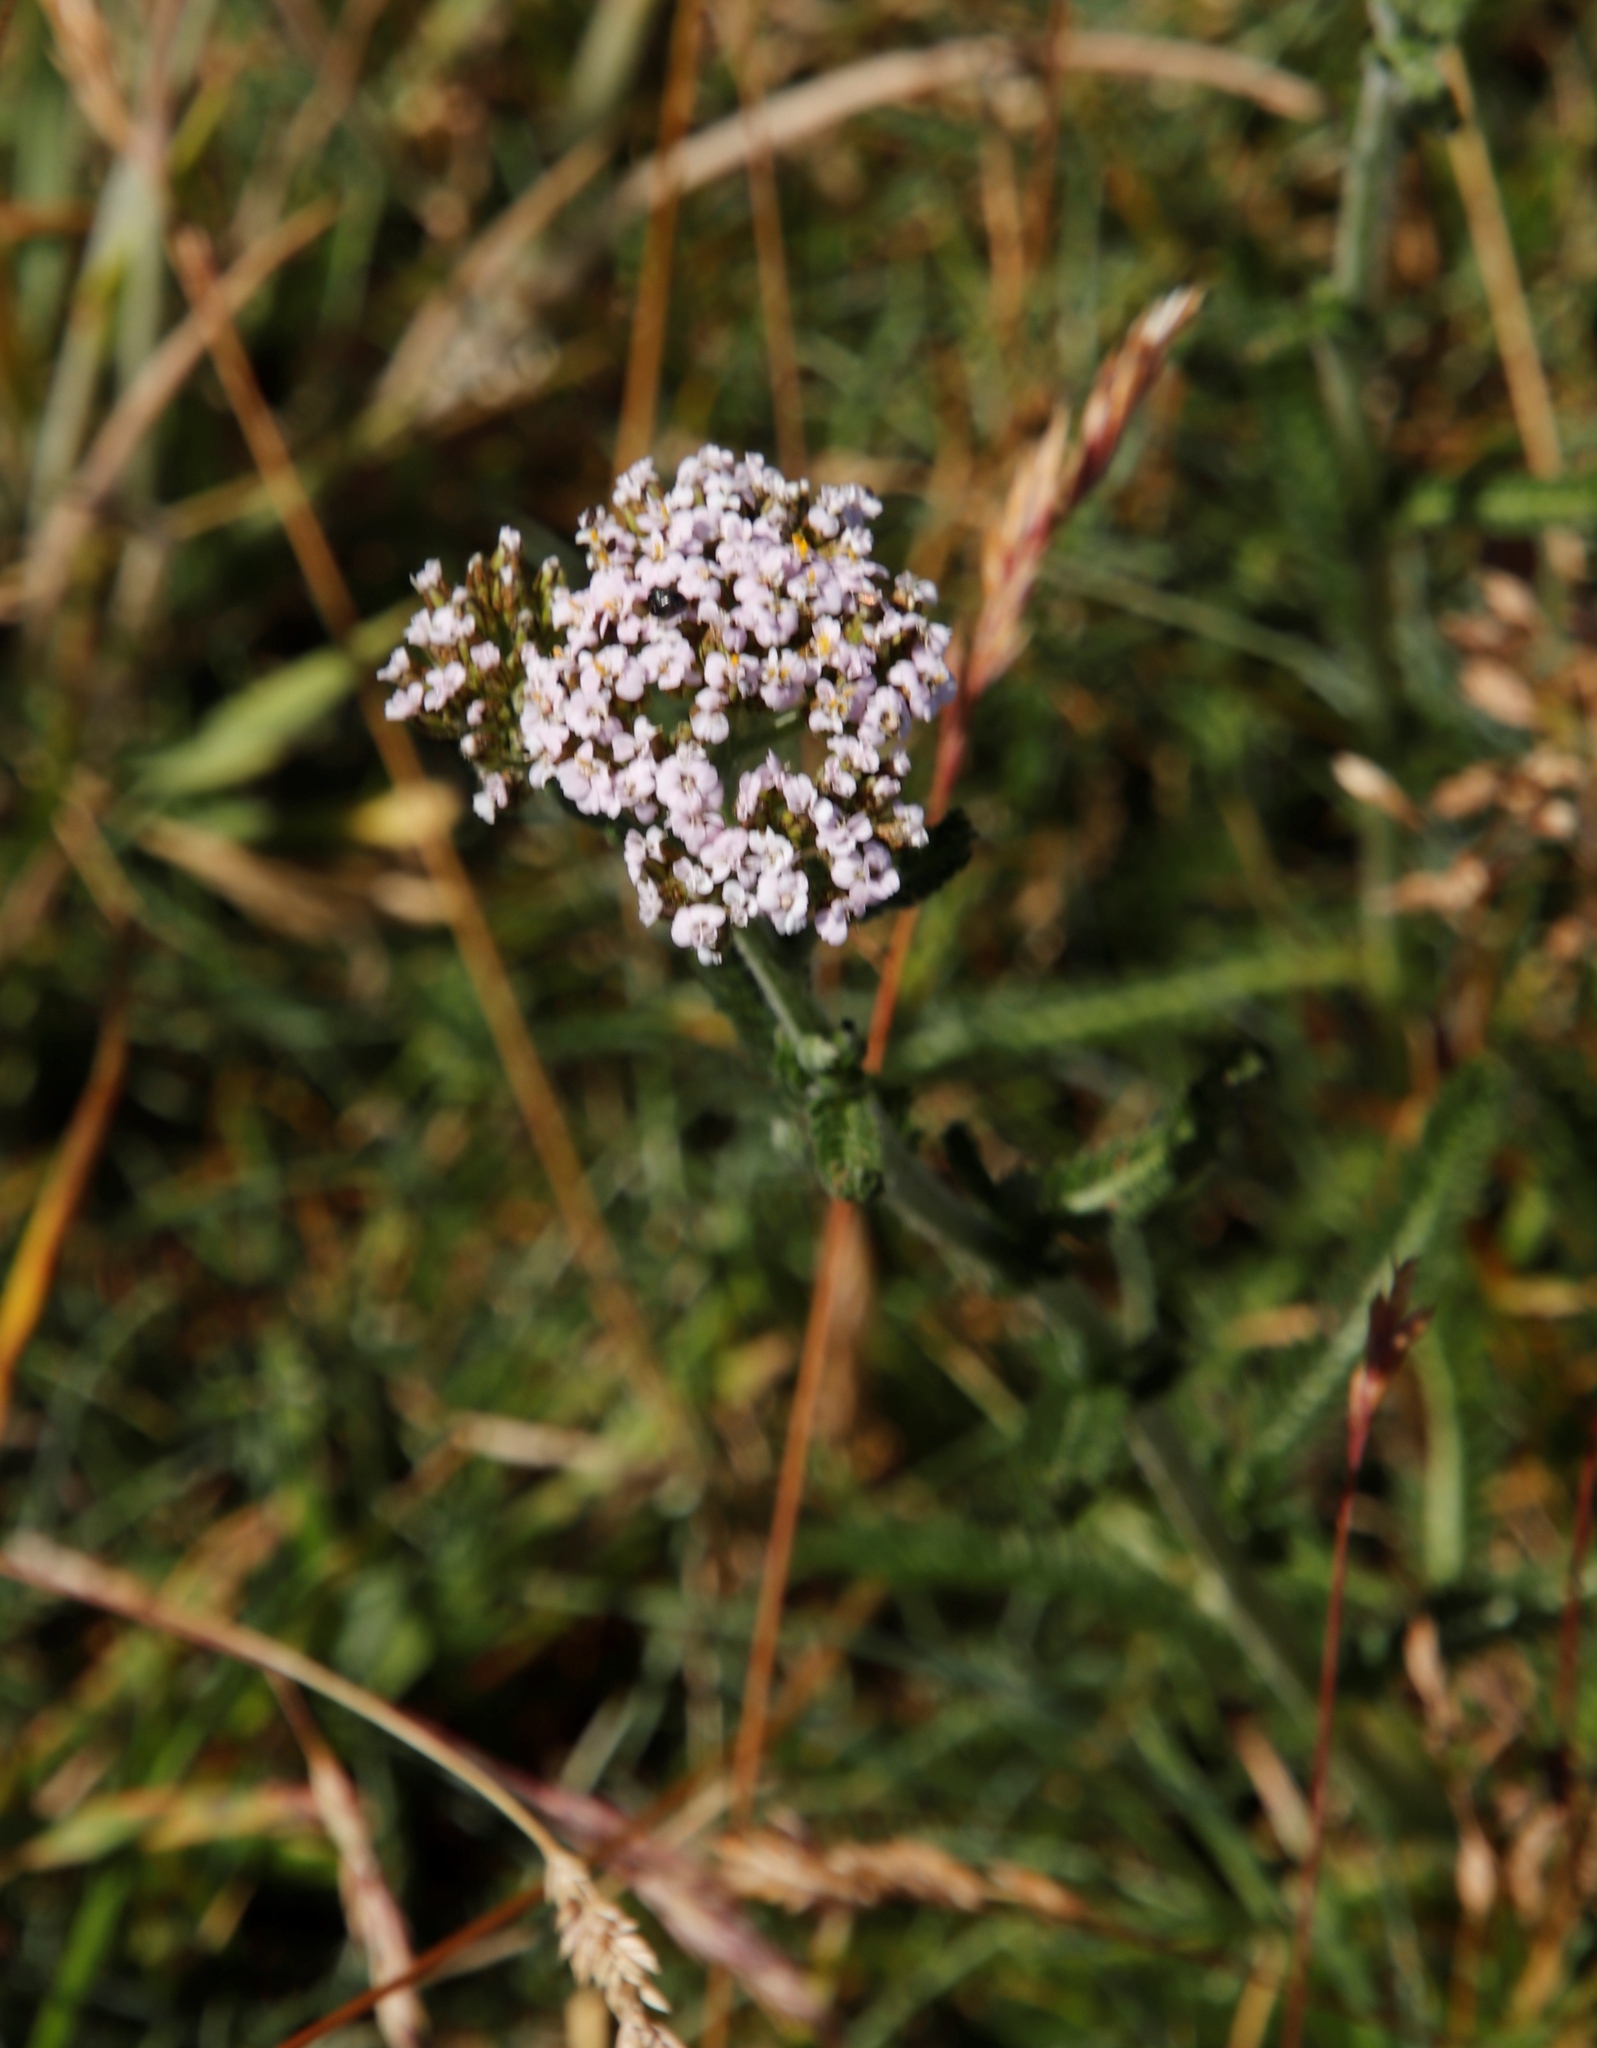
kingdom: Plantae
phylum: Tracheophyta
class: Magnoliopsida
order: Asterales
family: Asteraceae
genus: Achillea
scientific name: Achillea millefolium
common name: Yarrow
